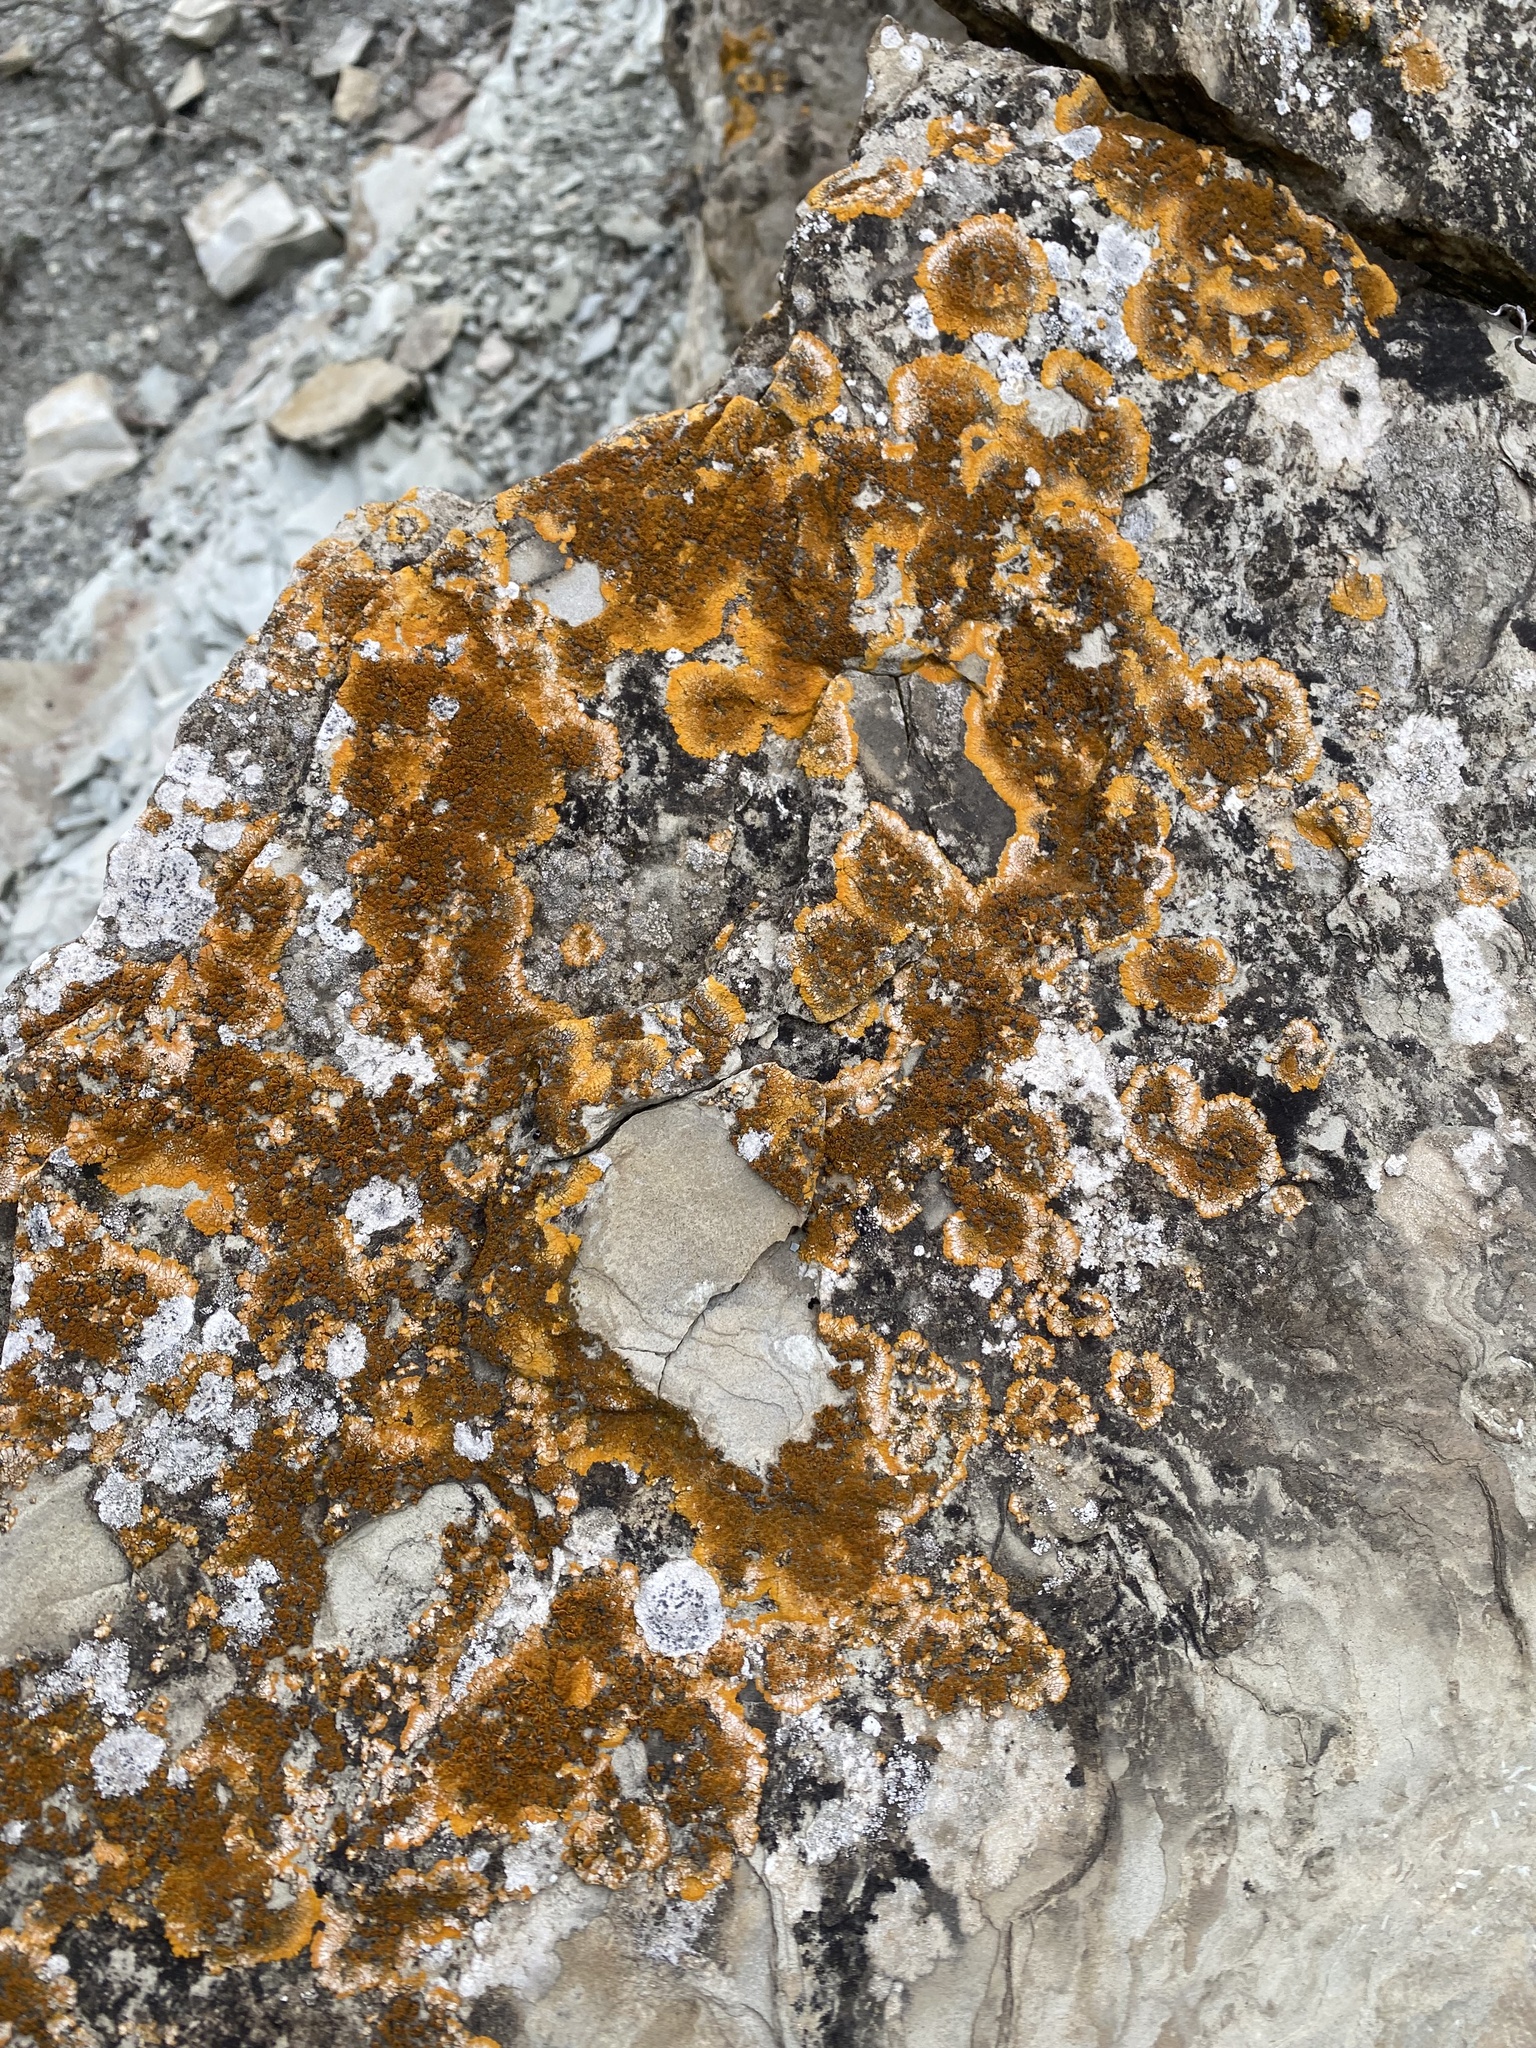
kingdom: Fungi
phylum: Ascomycota
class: Lecanoromycetes
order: Teloschistales
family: Teloschistaceae
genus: Variospora
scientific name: Variospora aurantia
